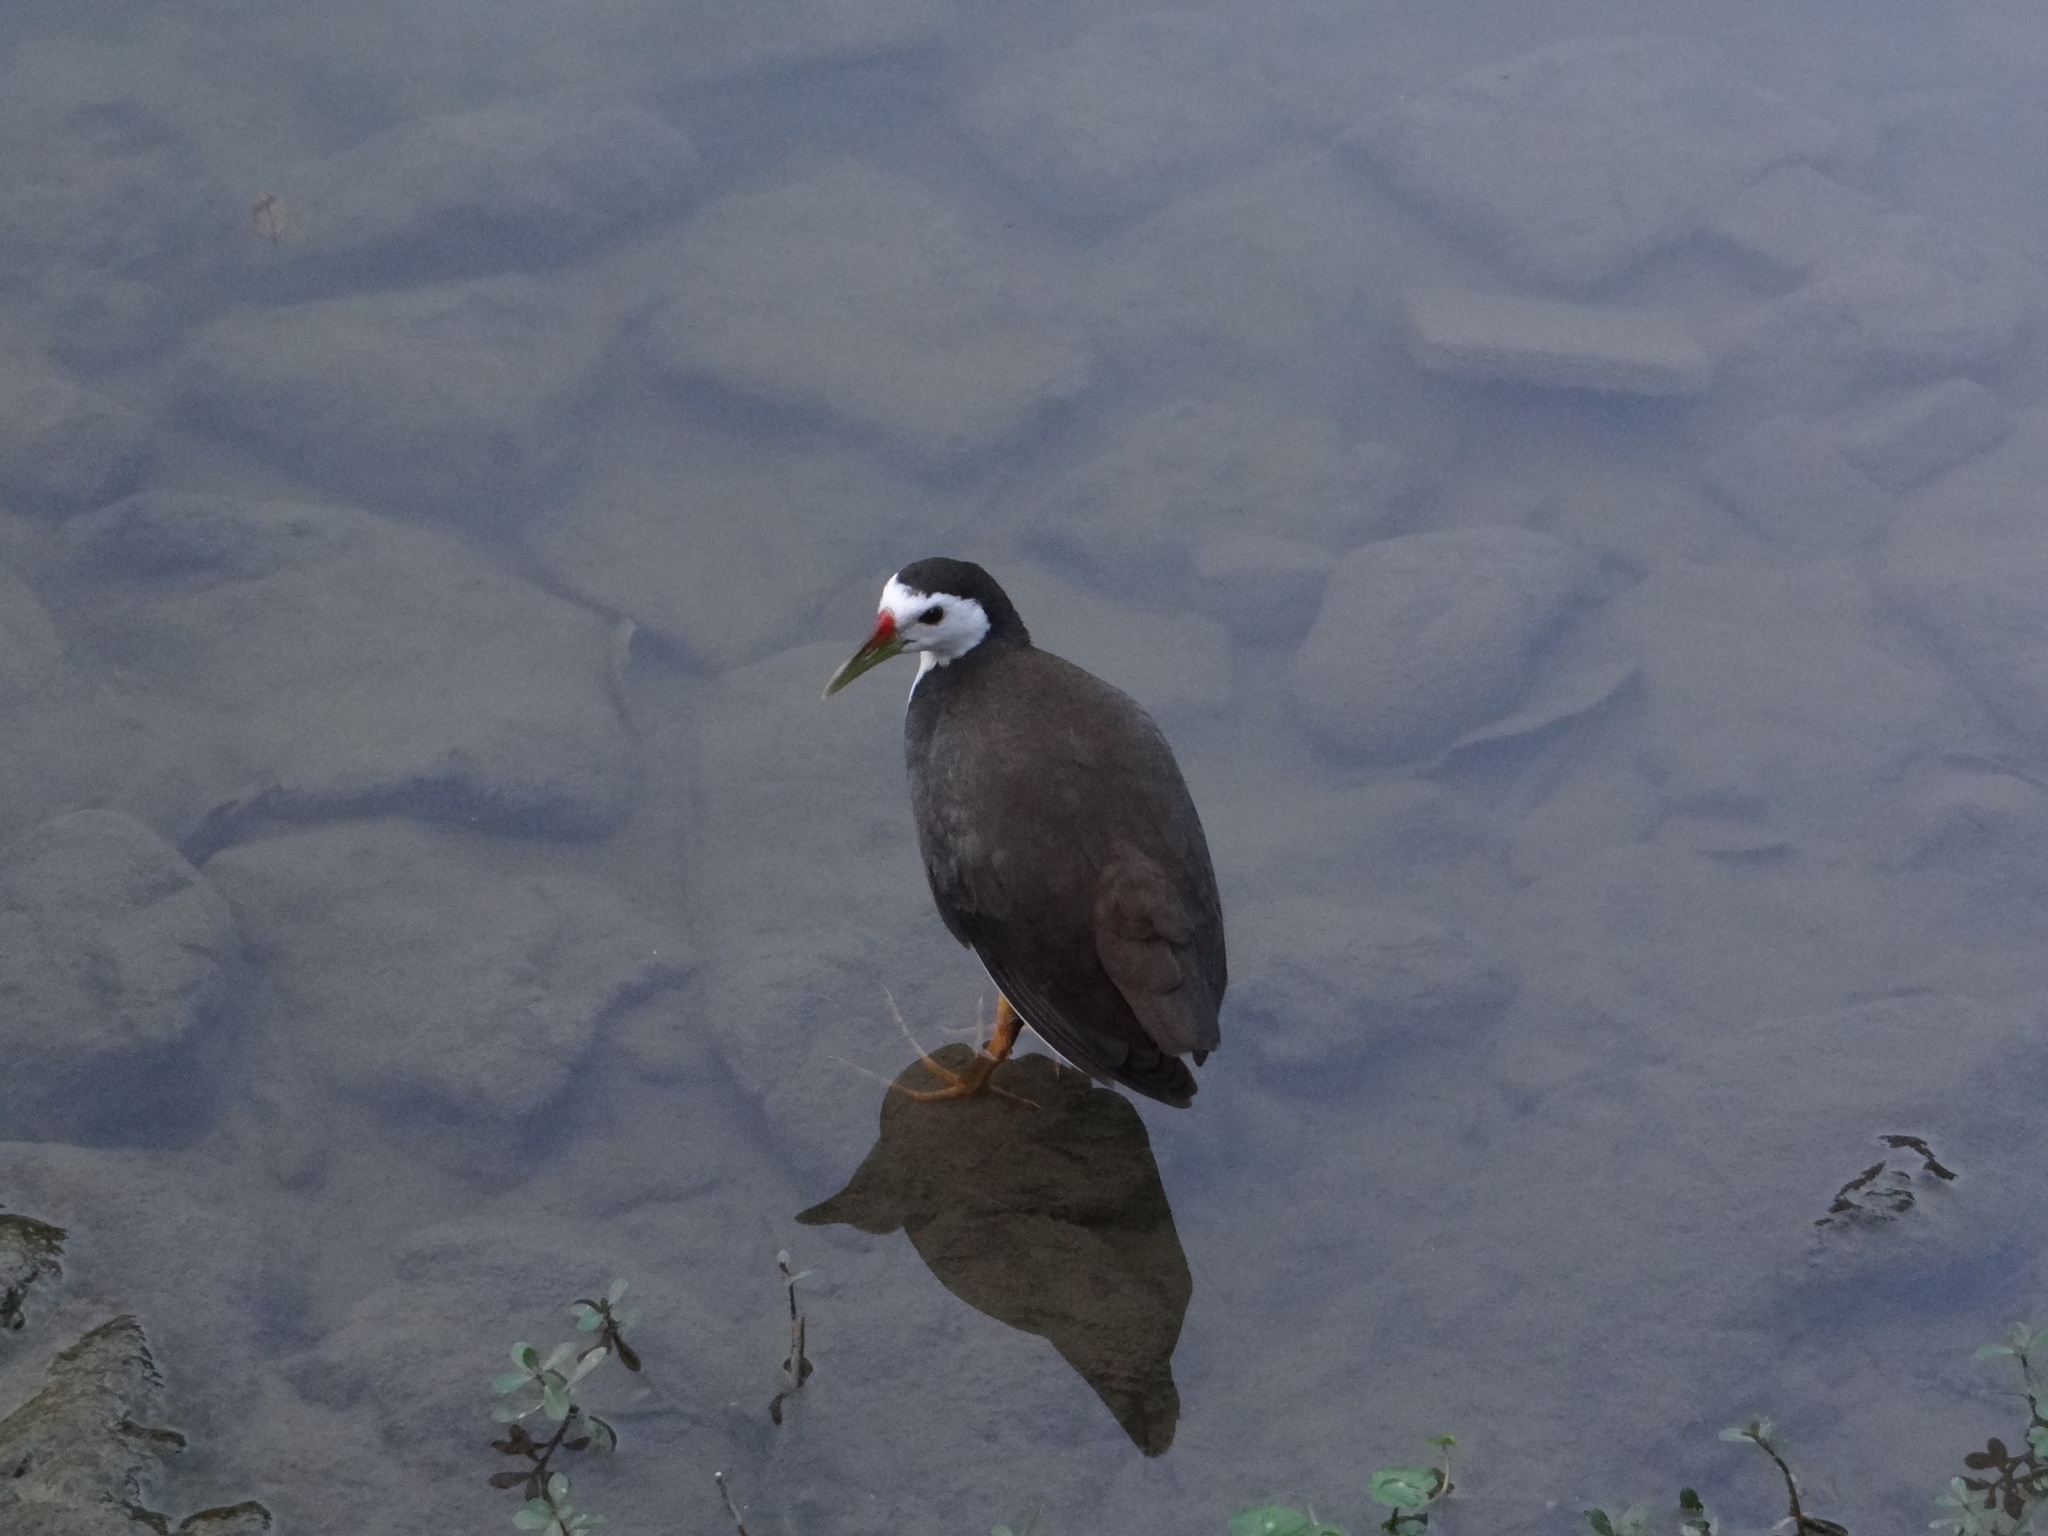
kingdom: Animalia
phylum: Chordata
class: Aves
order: Gruiformes
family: Rallidae
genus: Amaurornis
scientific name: Amaurornis phoenicurus
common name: White-breasted waterhen
